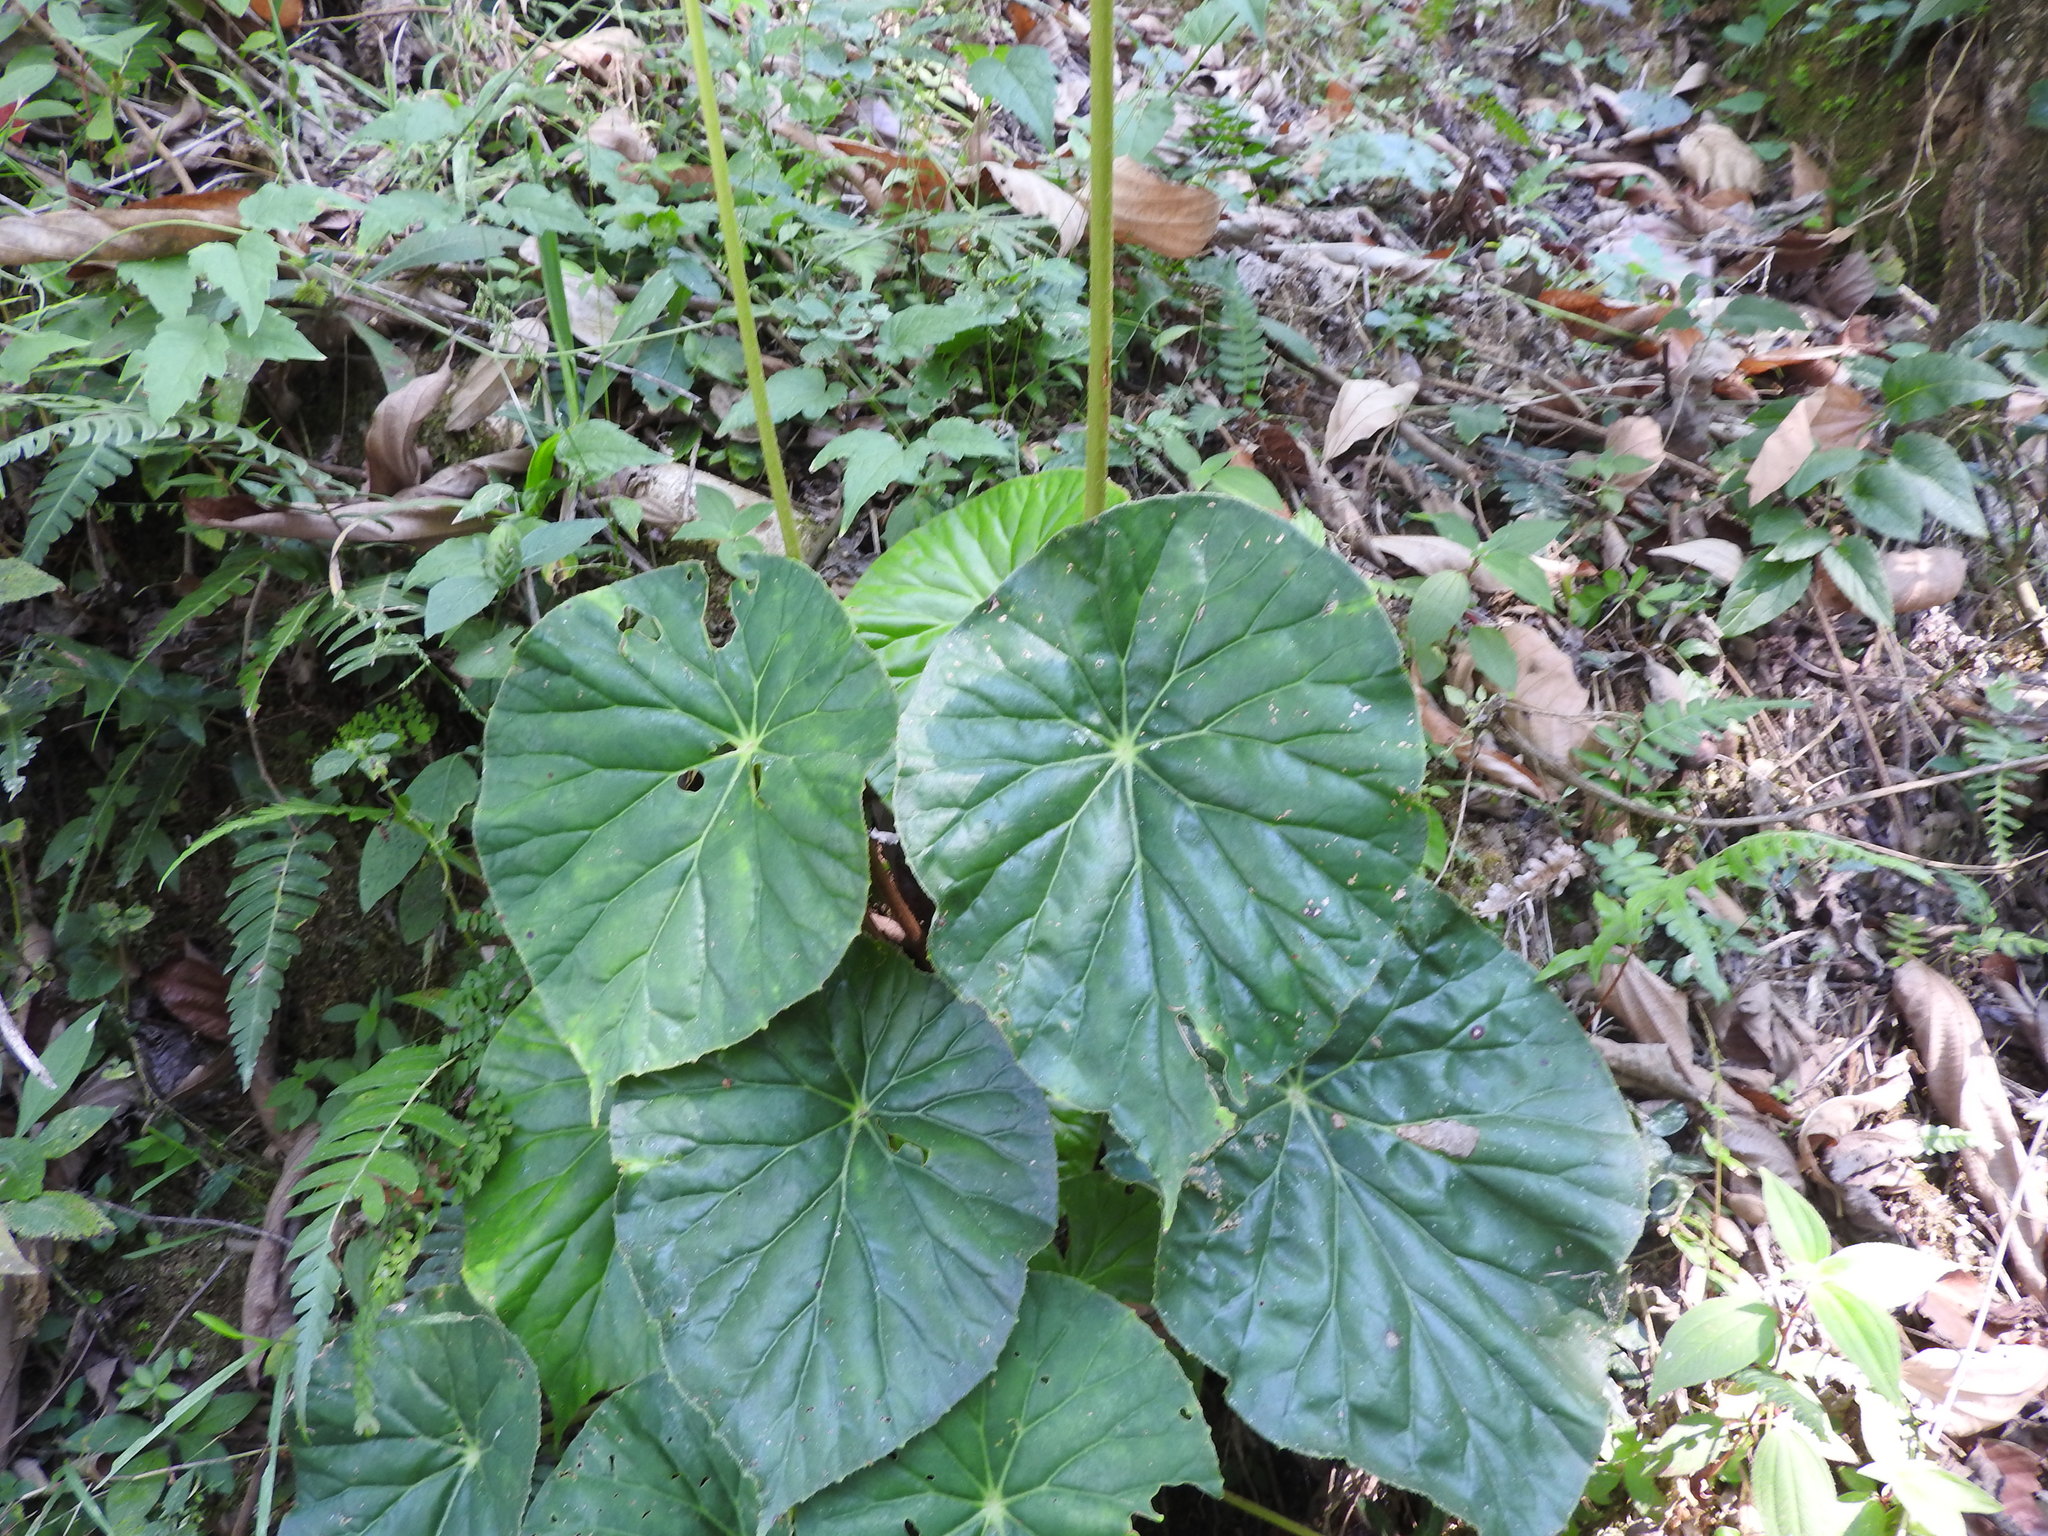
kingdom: Plantae
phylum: Tracheophyta
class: Magnoliopsida
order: Cucurbitales
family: Begoniaceae
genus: Begonia
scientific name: Begonia nelumbiifolia
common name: Lilypad begonia
